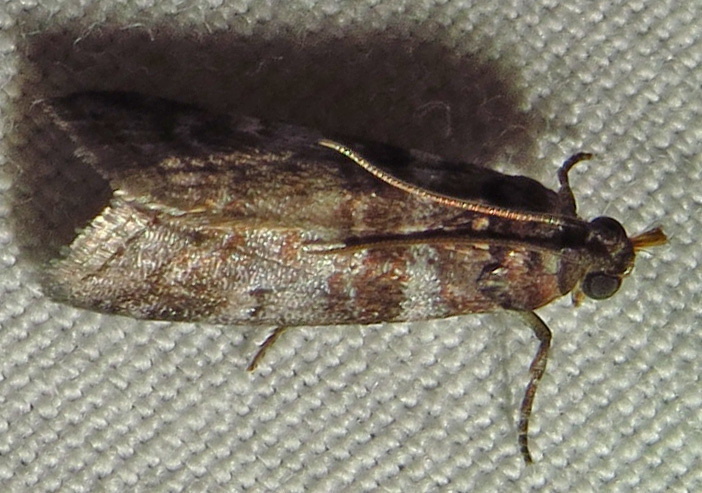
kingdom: Animalia
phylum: Arthropoda
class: Insecta
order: Lepidoptera
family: Pyralidae
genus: Sciota
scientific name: Sciota uvinella
